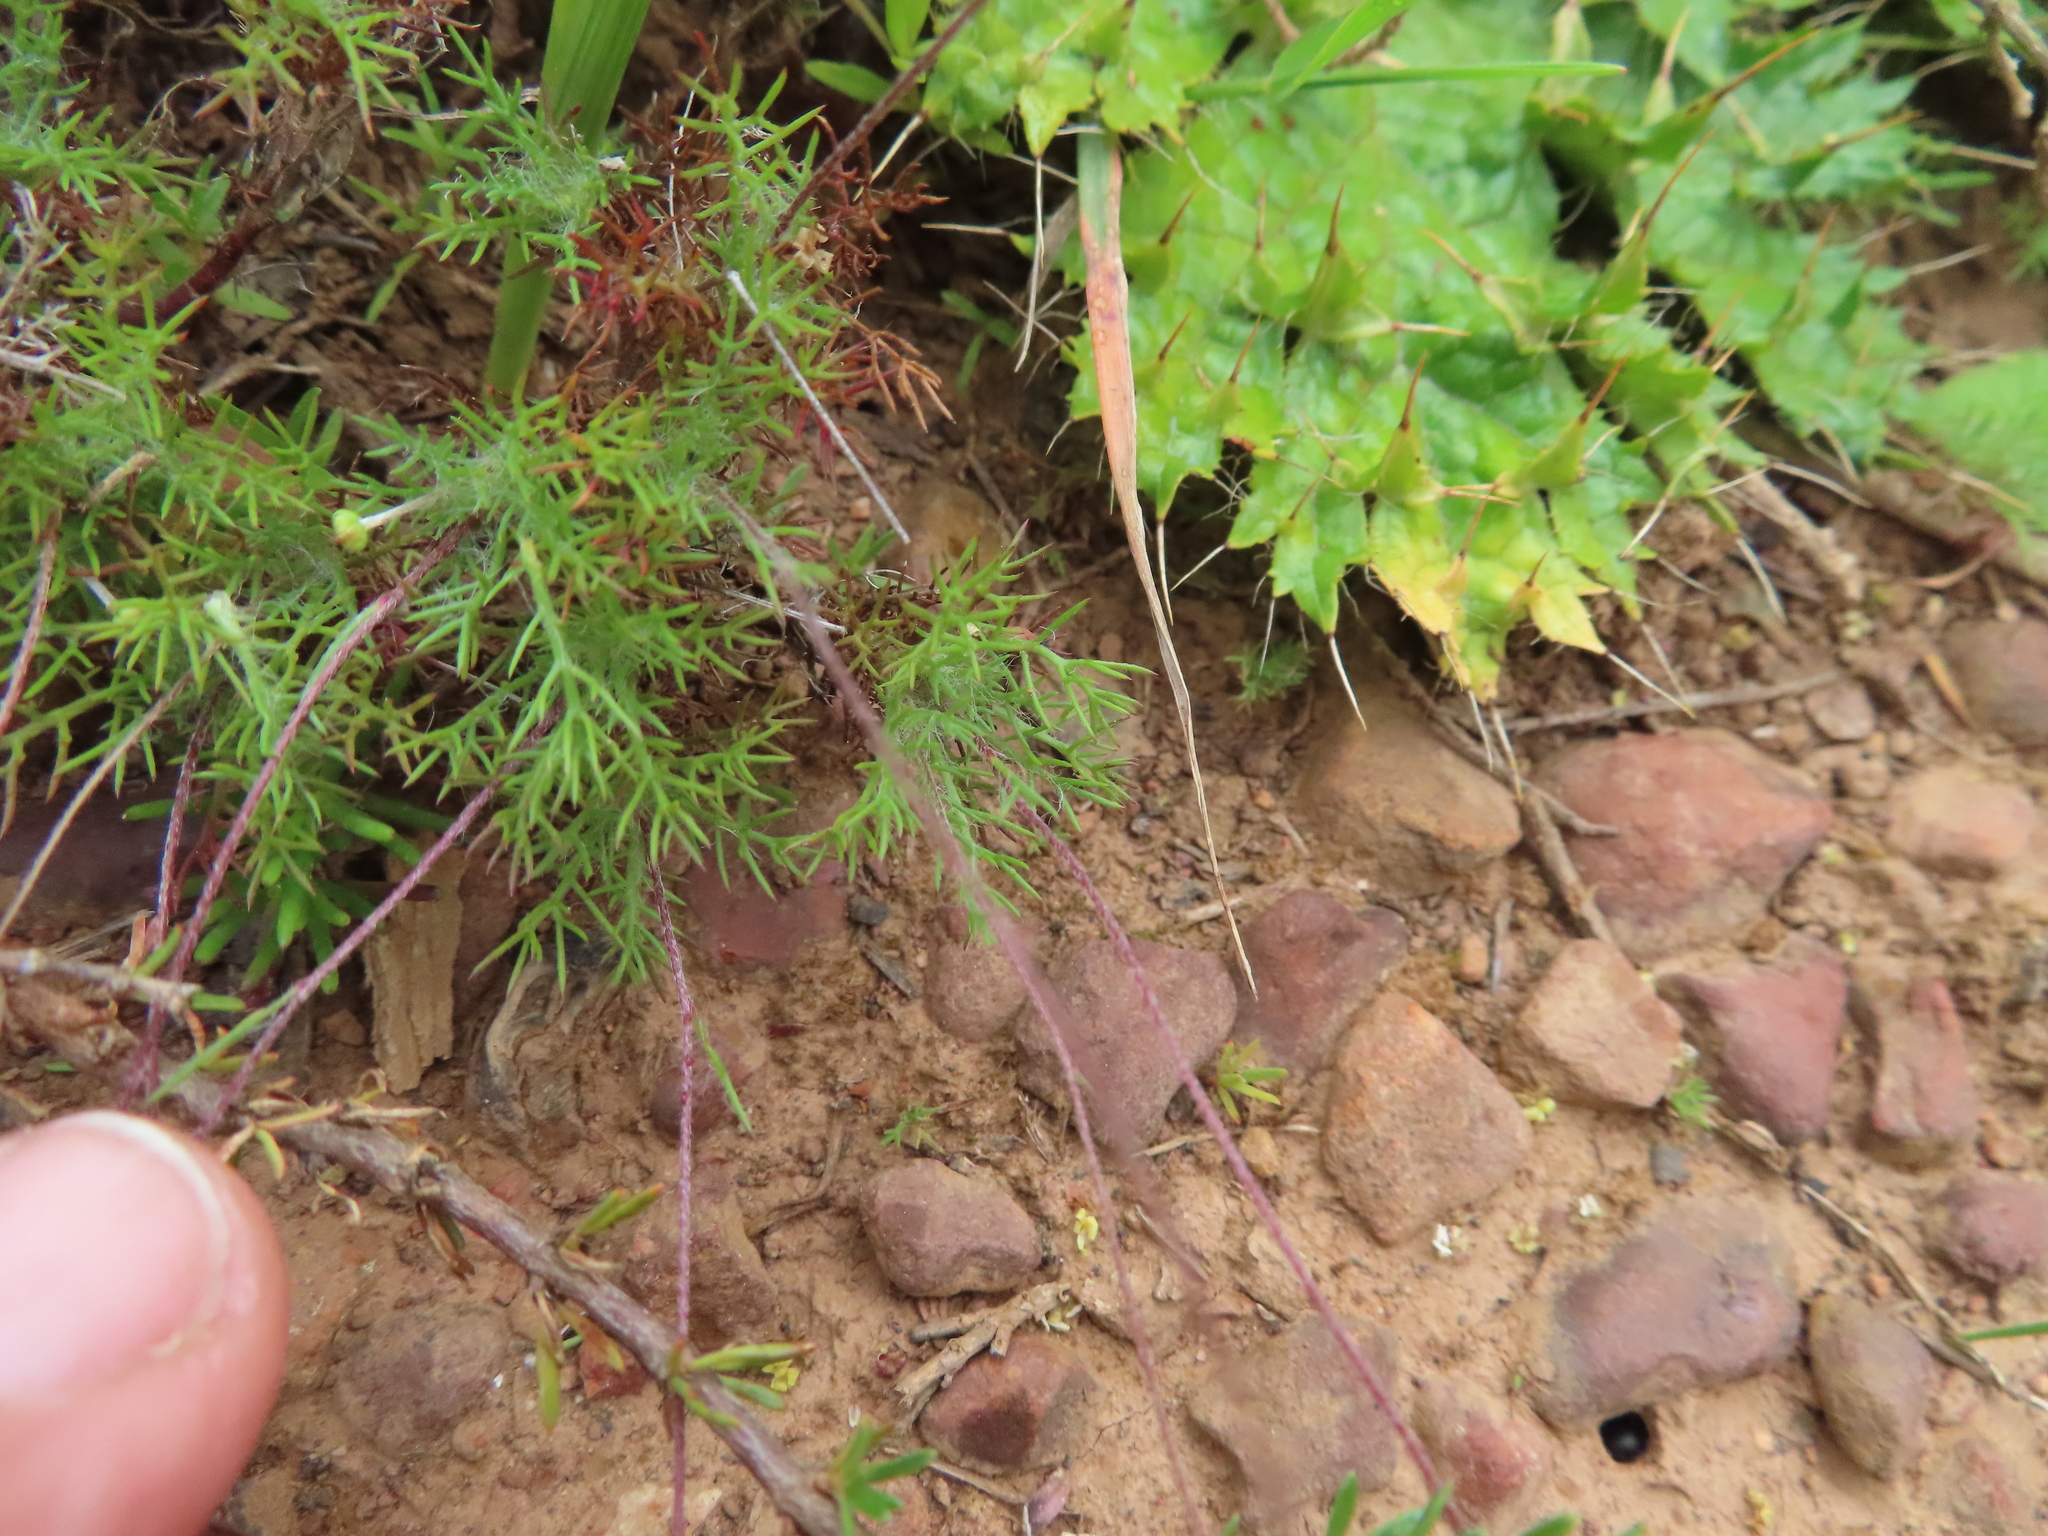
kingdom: Plantae
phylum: Tracheophyta
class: Magnoliopsida
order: Asterales
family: Asteraceae
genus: Cotula
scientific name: Cotula coronopifolia
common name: Buttonweed
